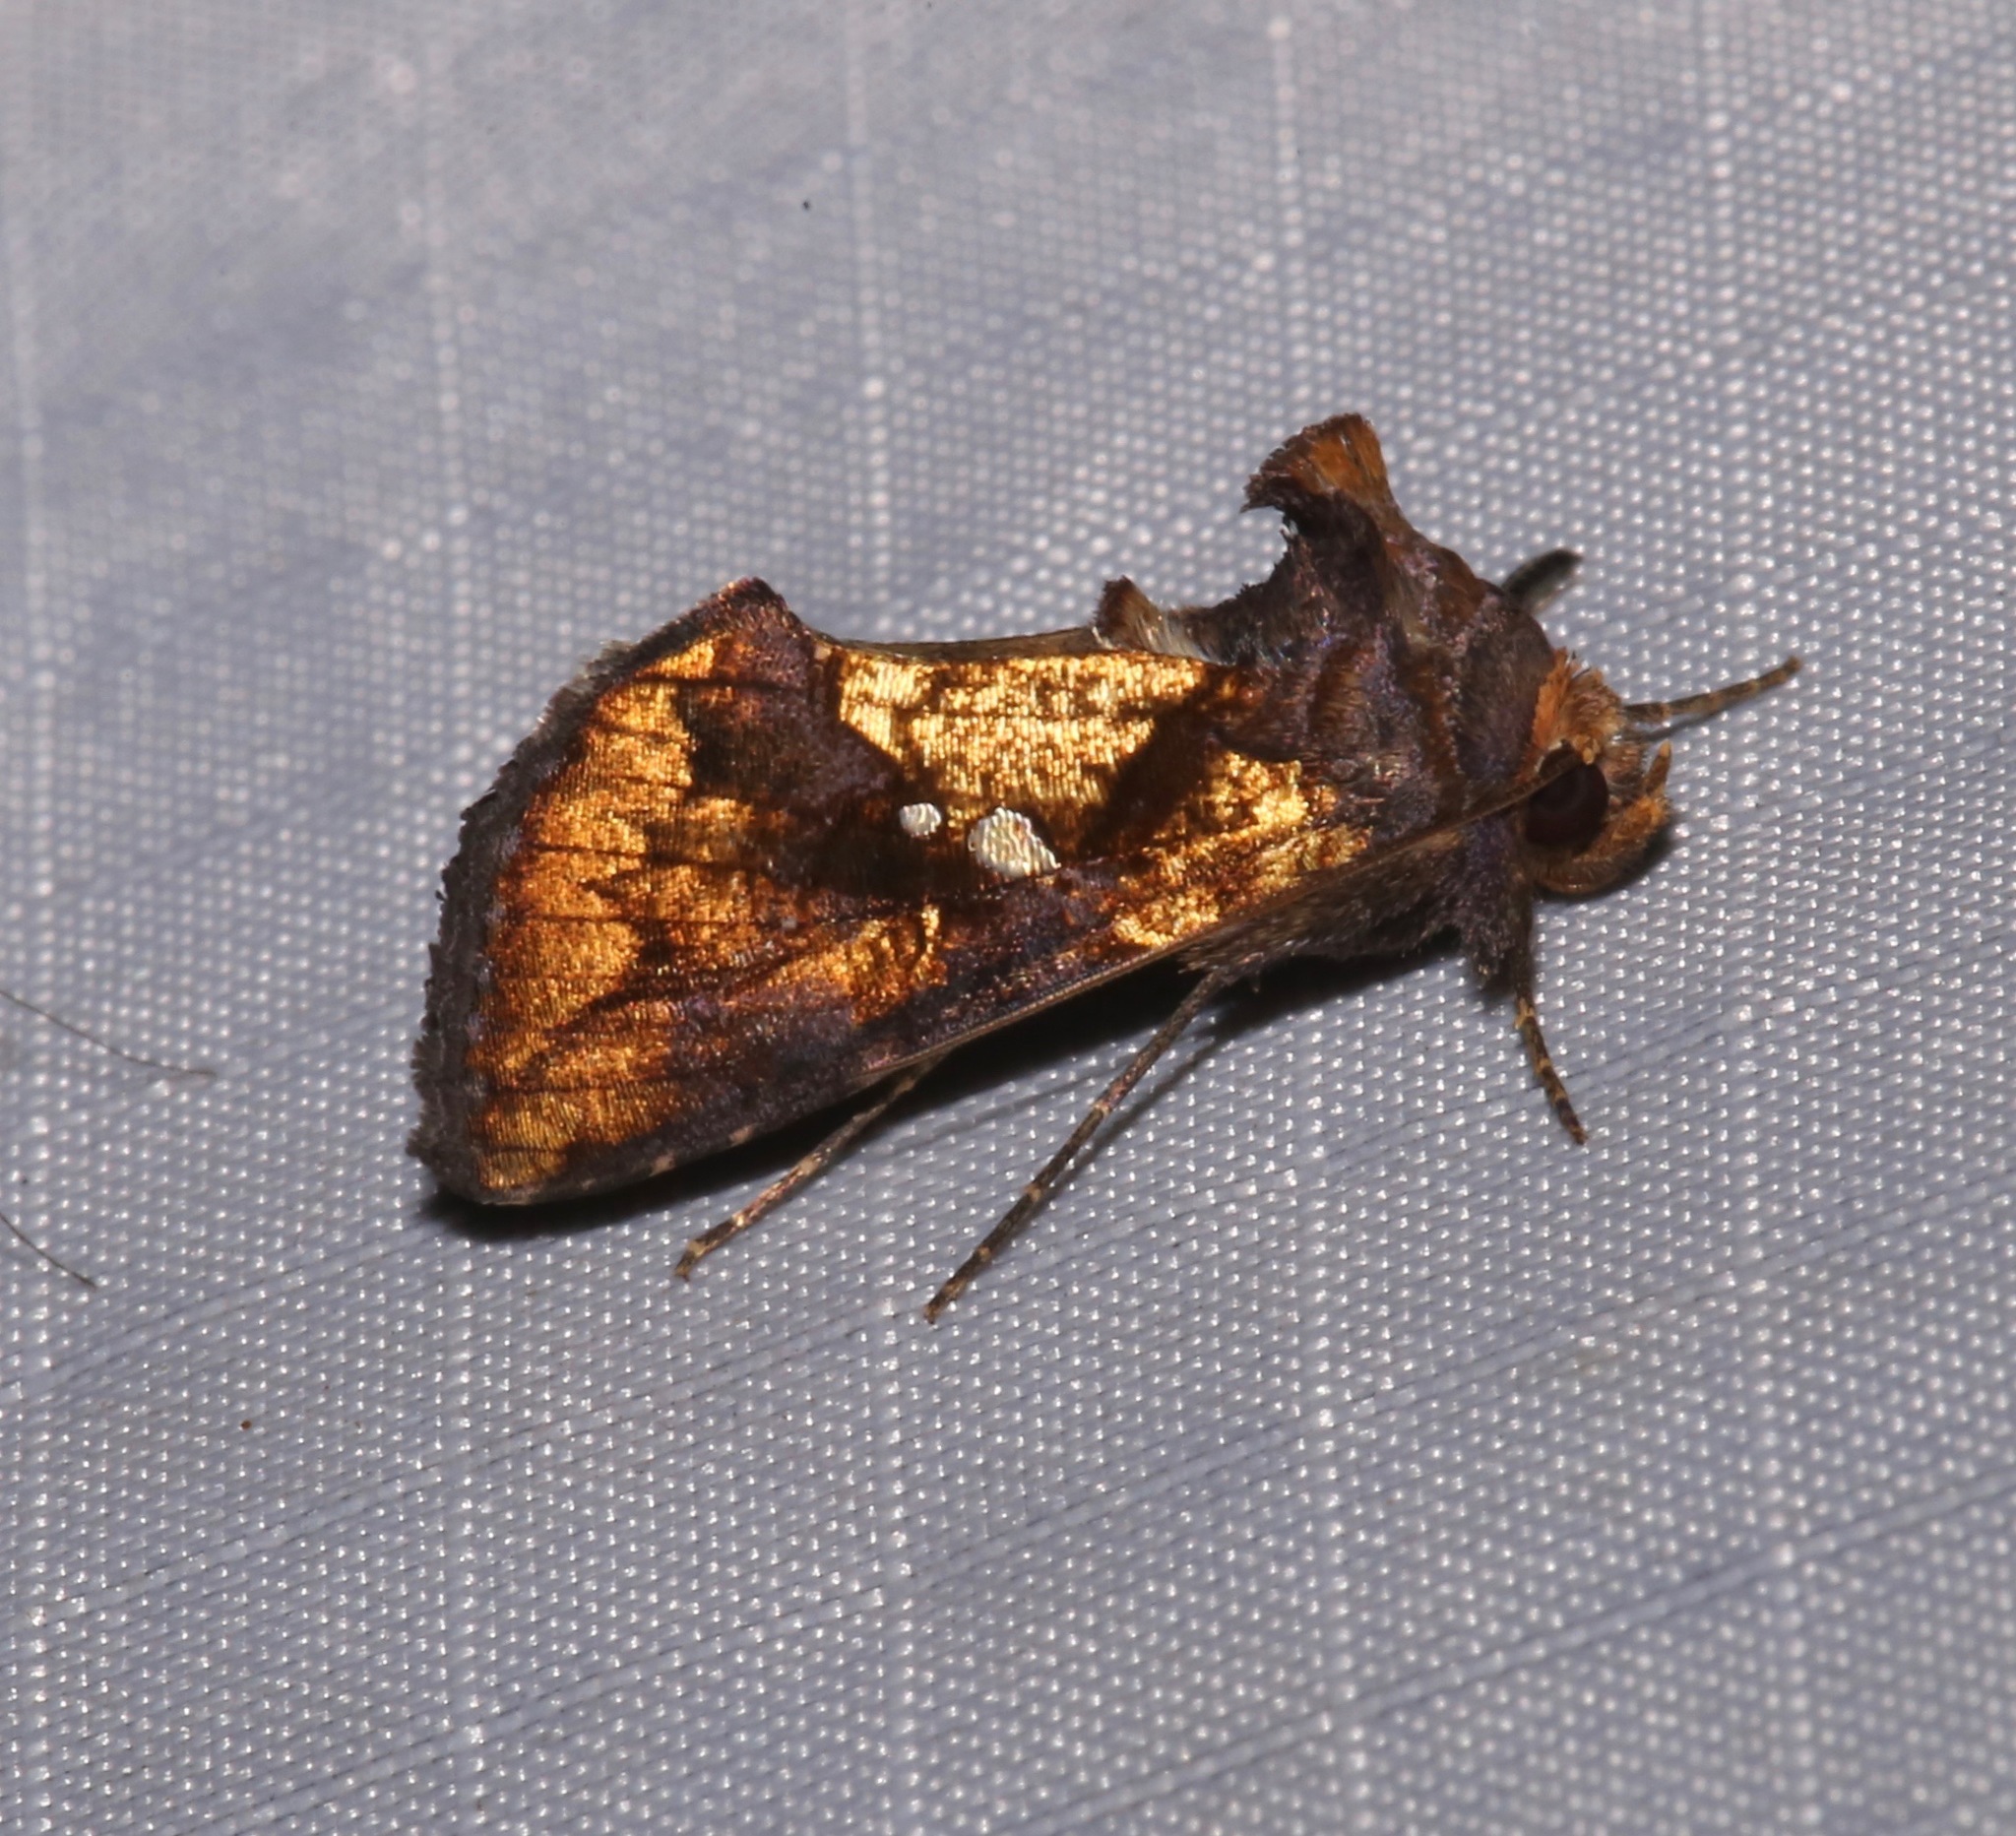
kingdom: Animalia
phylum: Arthropoda
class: Insecta
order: Lepidoptera
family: Noctuidae
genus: Argyrogramma
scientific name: Argyrogramma verruca
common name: Golden looper moth
